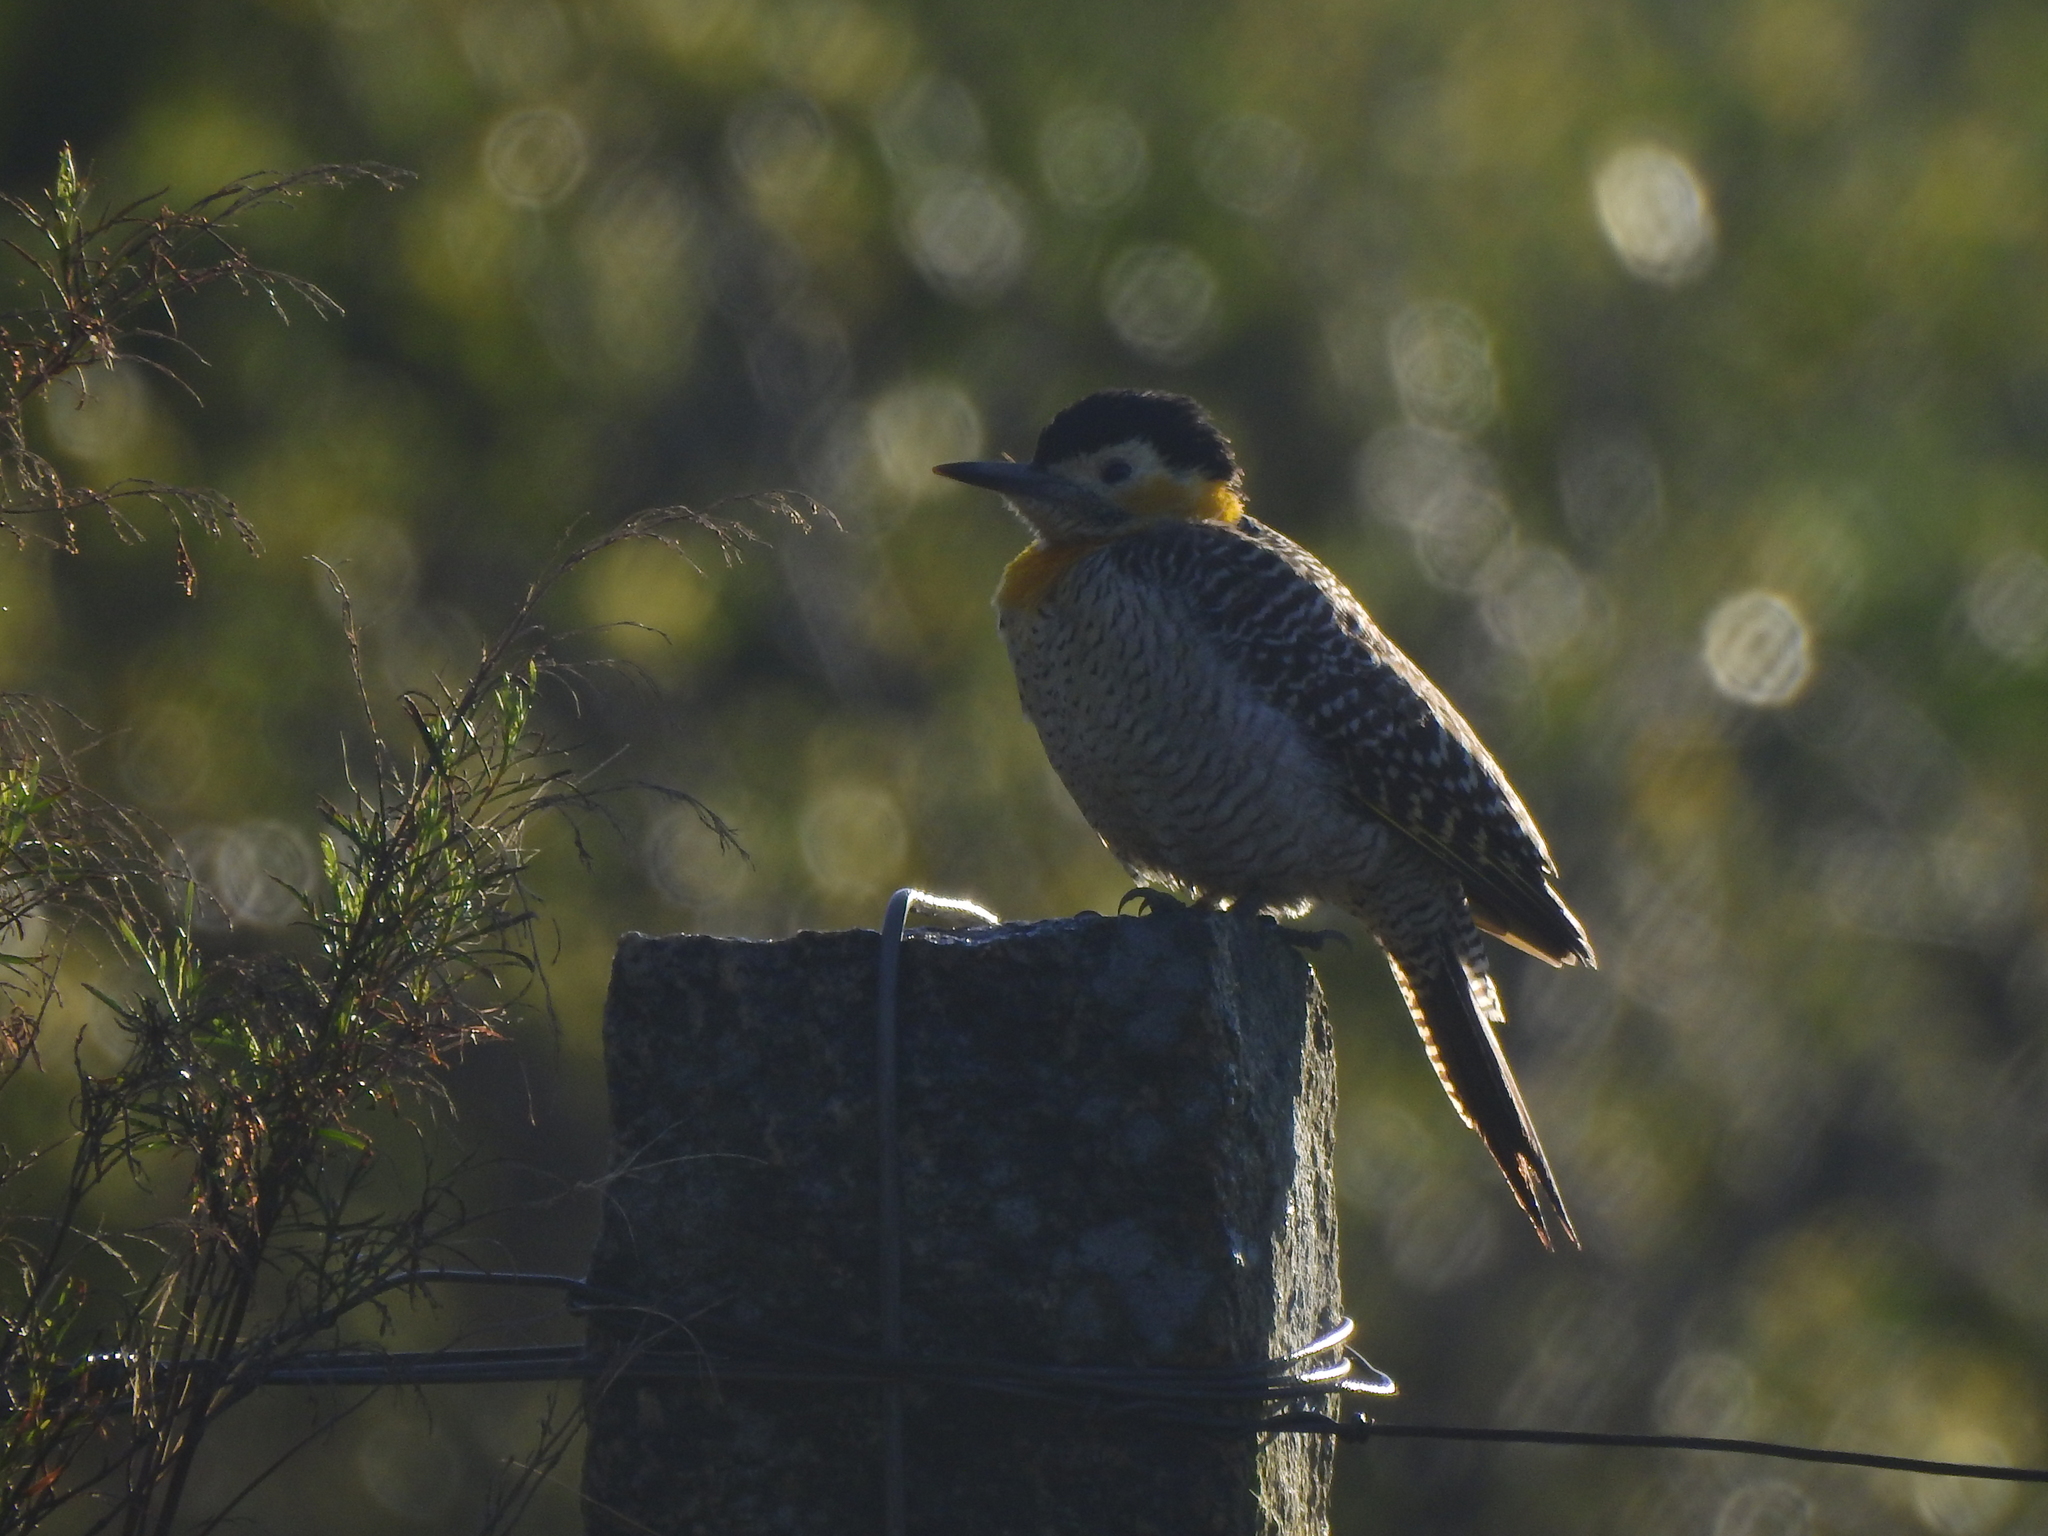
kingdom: Animalia
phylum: Chordata
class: Aves
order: Piciformes
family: Picidae
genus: Colaptes
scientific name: Colaptes campestris
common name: Campo flicker
